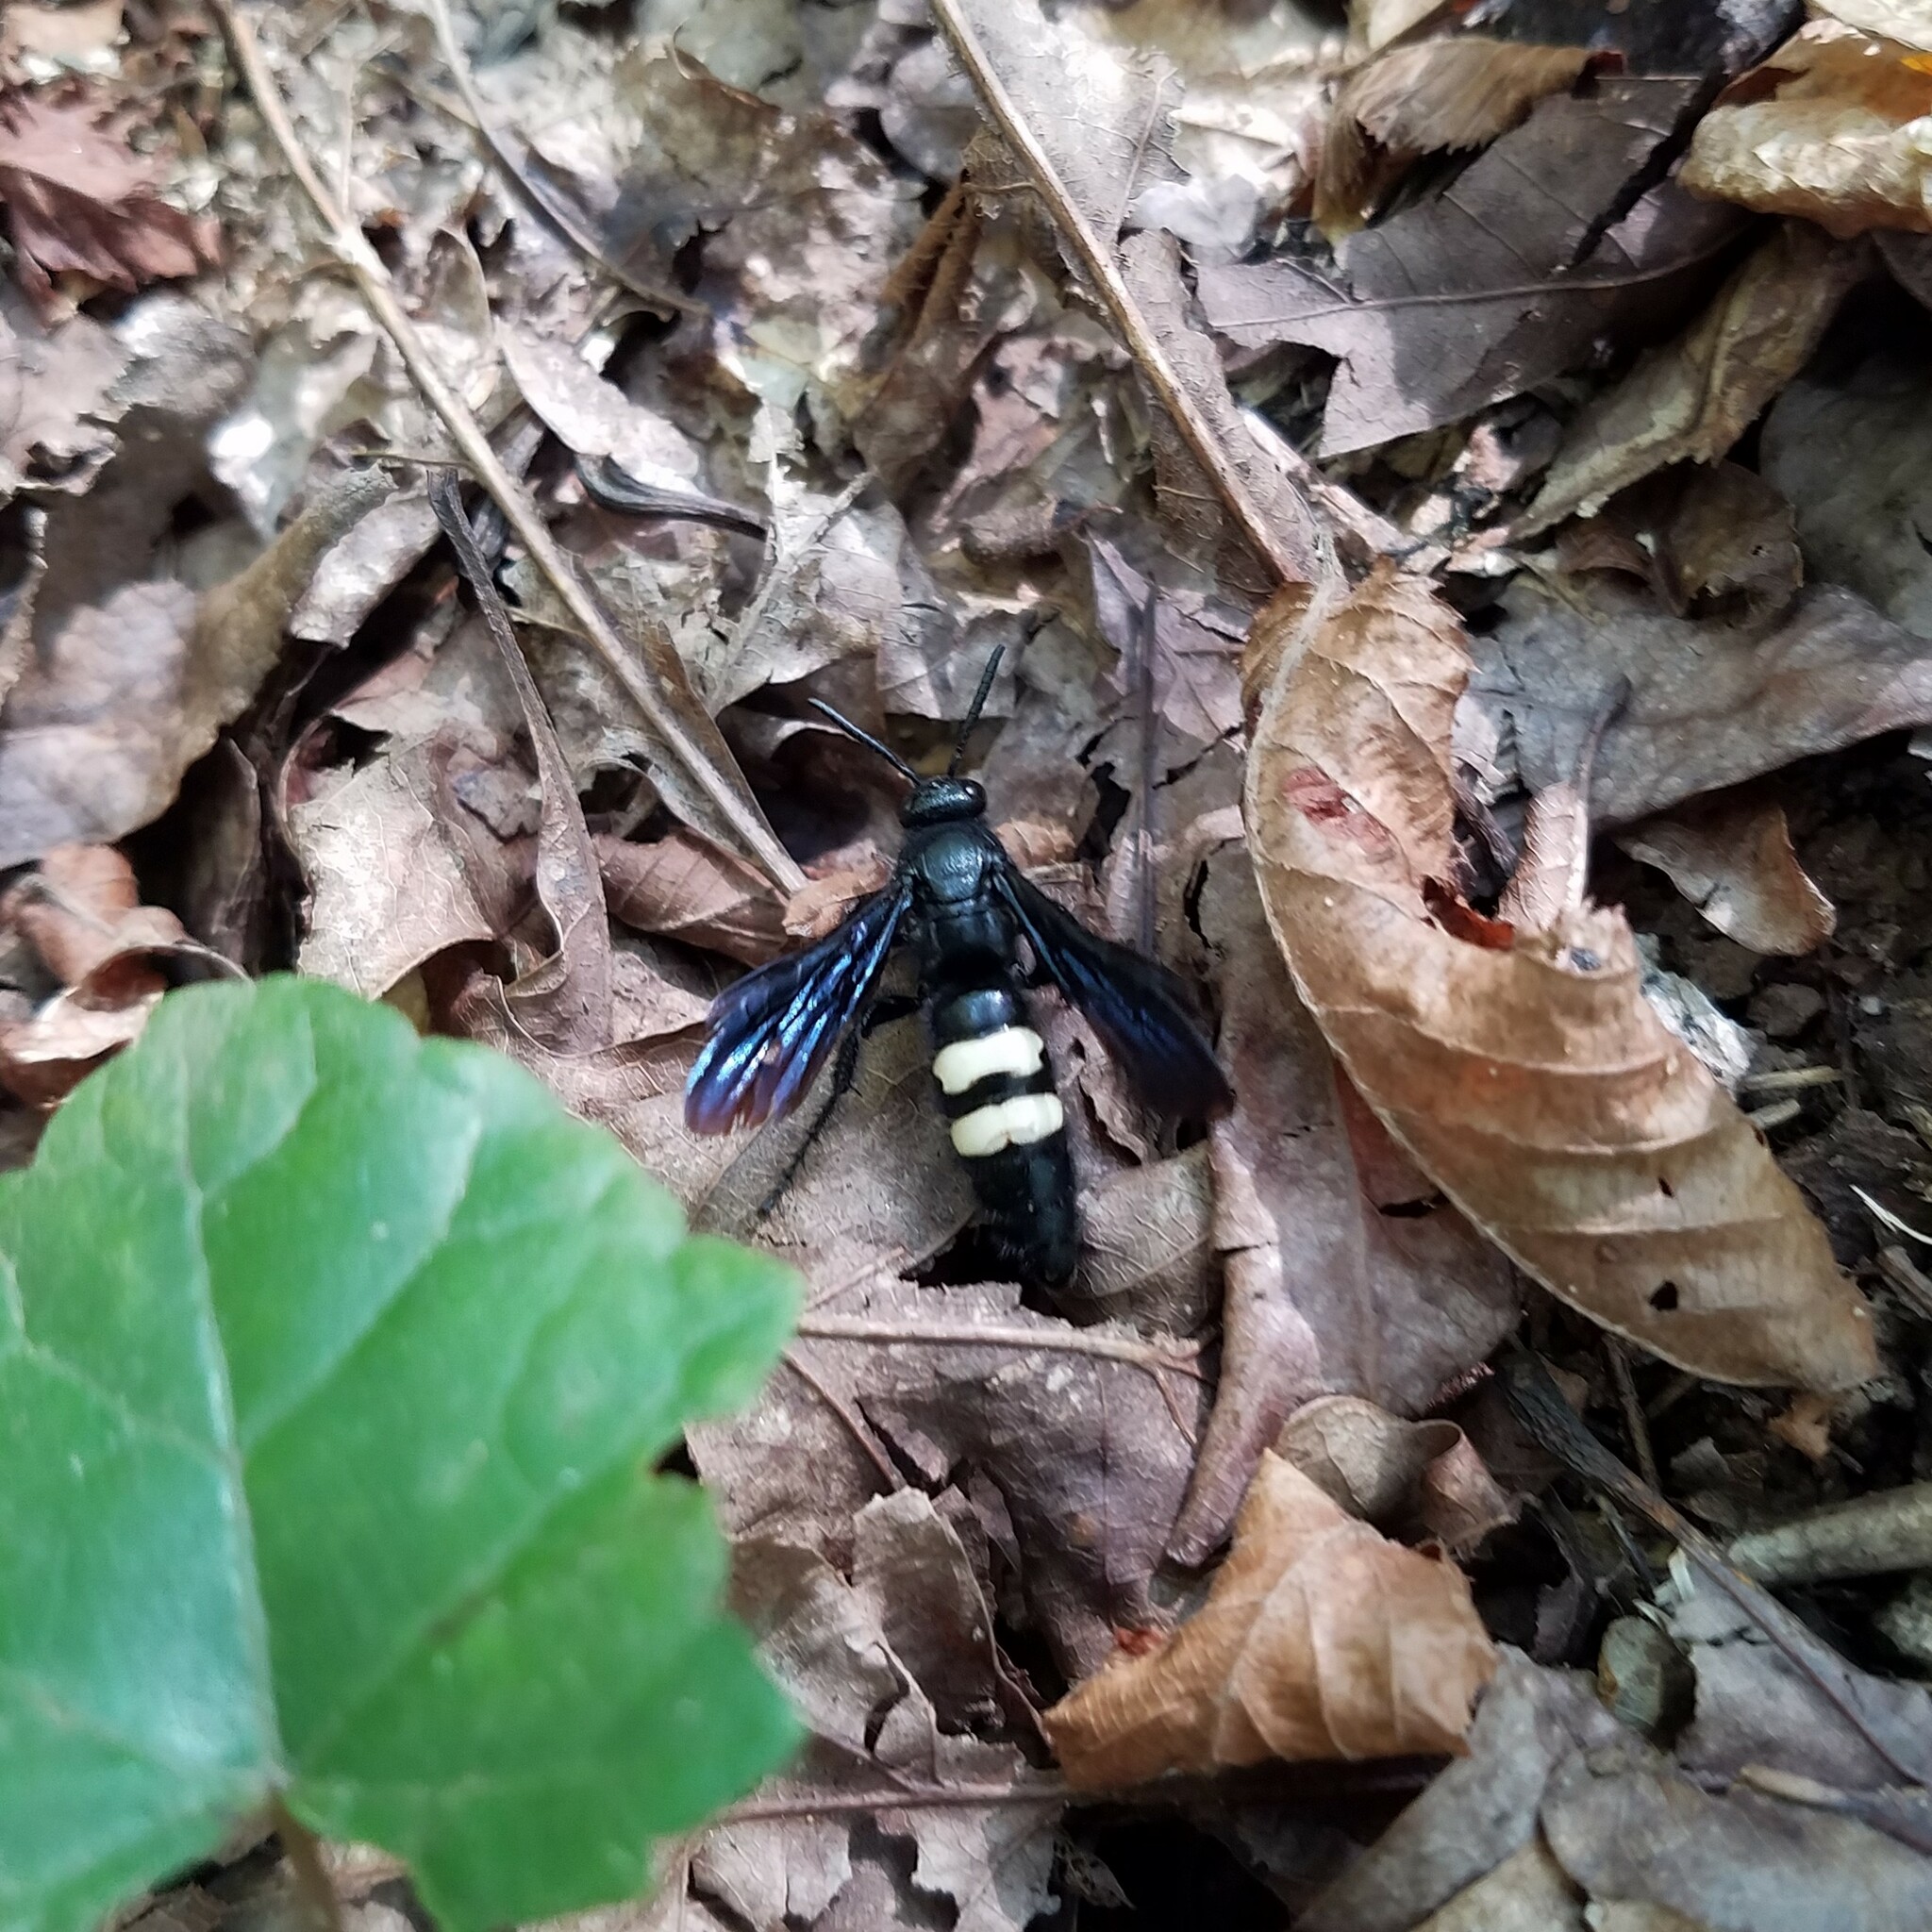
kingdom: Animalia
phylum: Arthropoda
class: Insecta
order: Hymenoptera
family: Scoliidae
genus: Scolia
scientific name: Scolia bicincta
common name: Double-banded scoliid wasp
